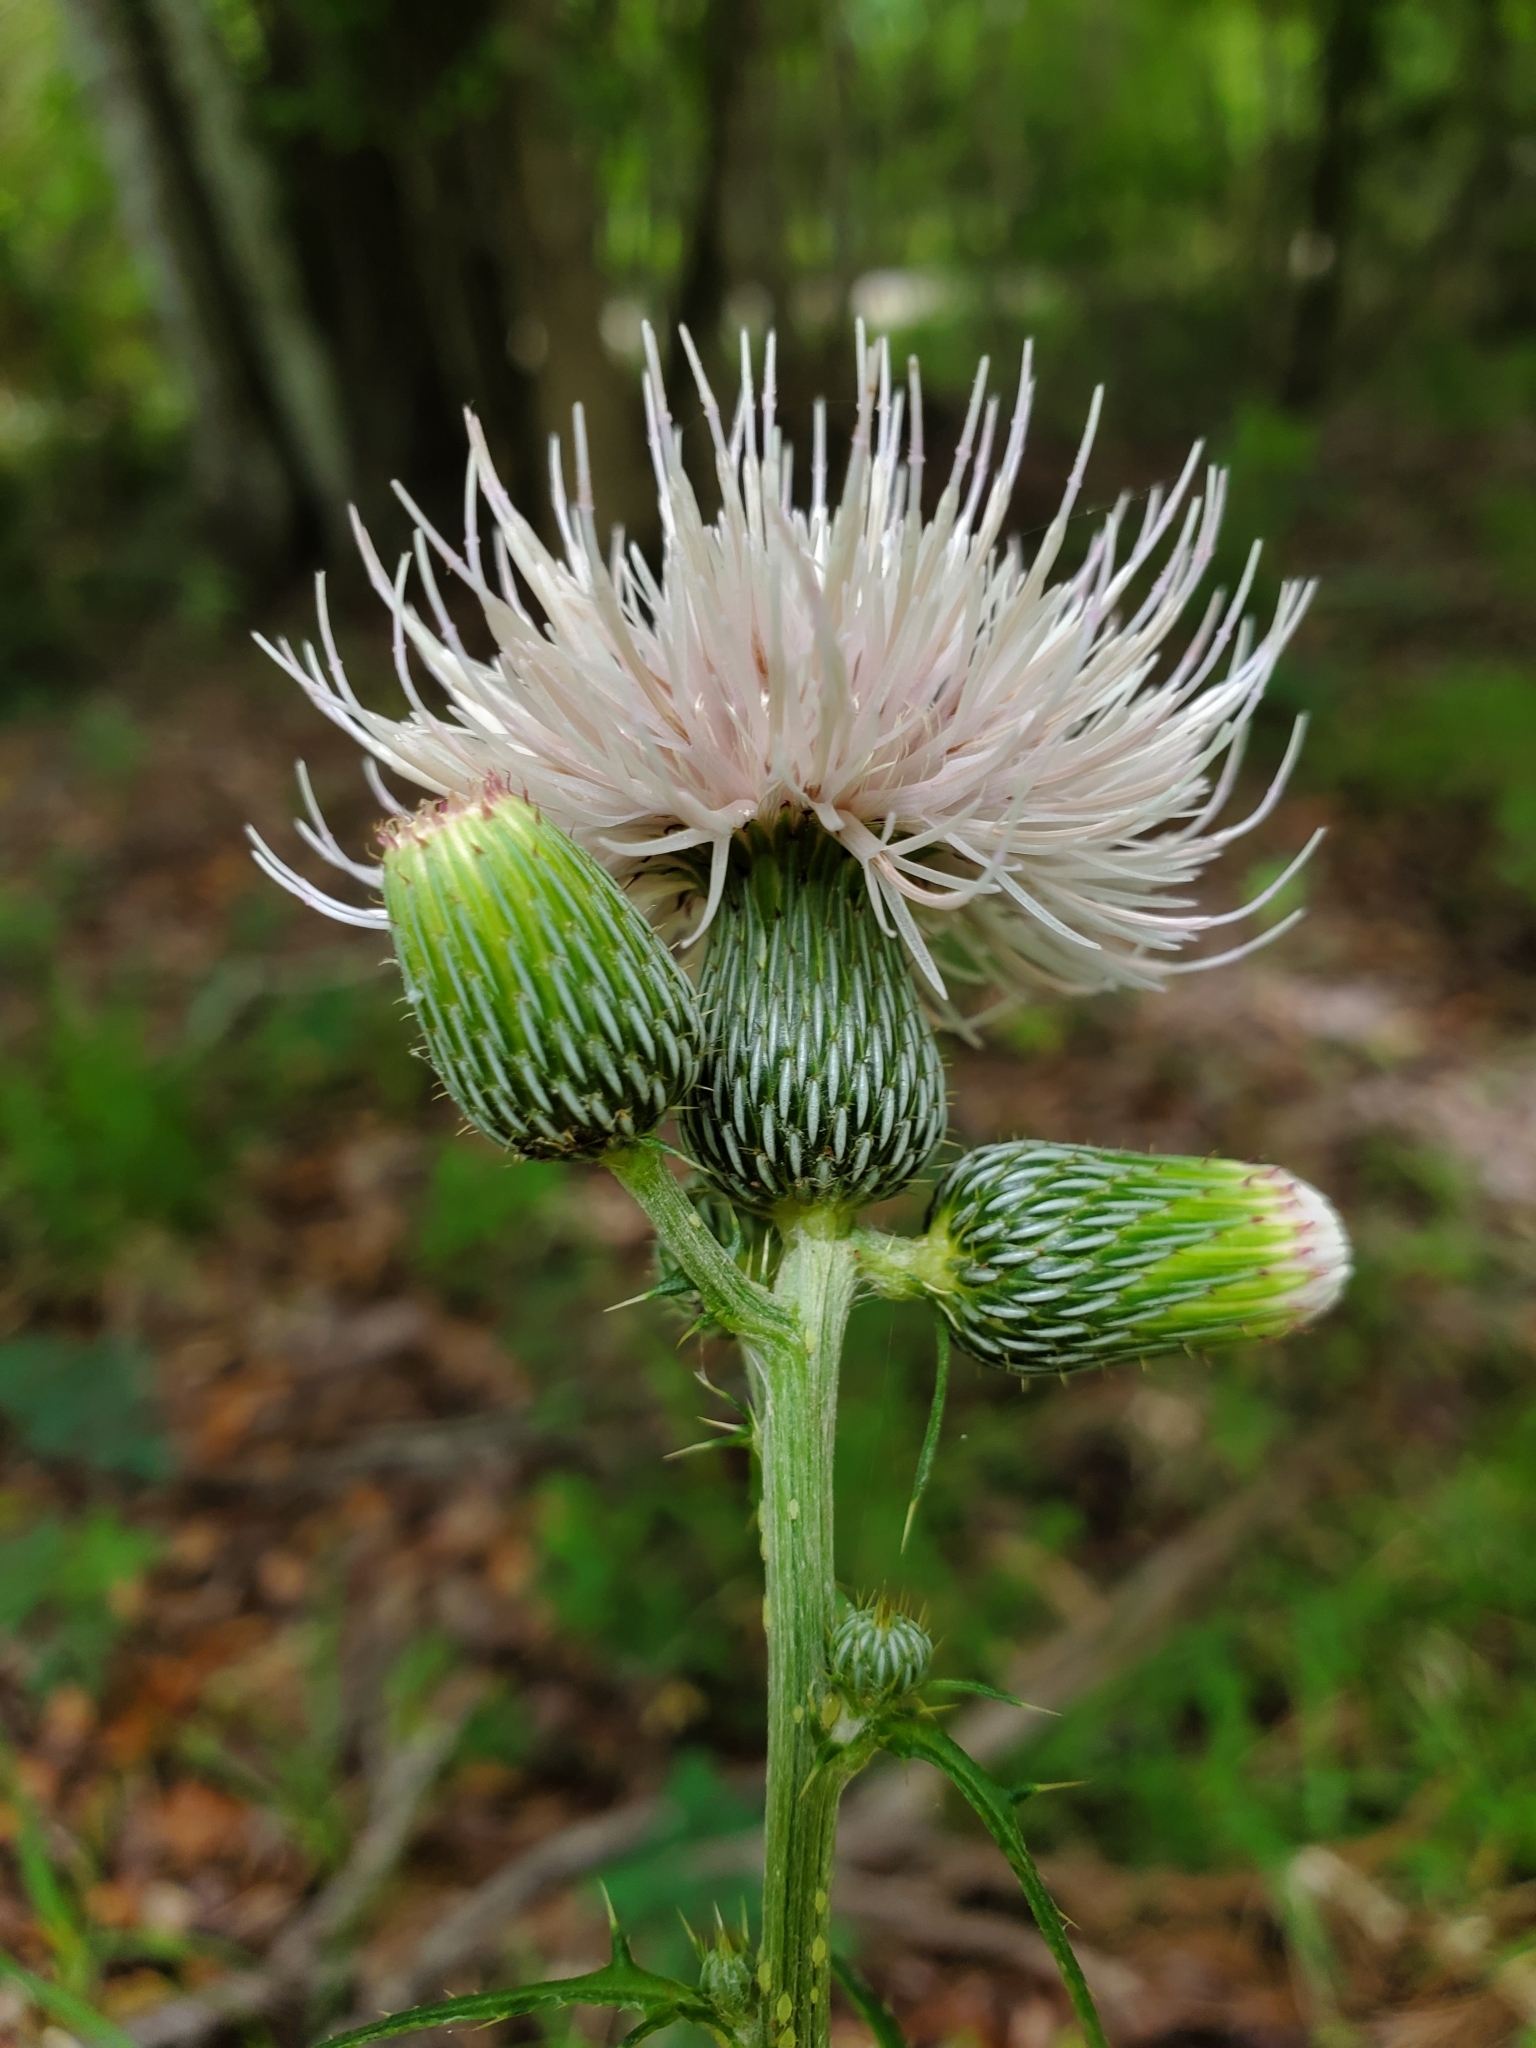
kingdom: Plantae
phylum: Tracheophyta
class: Magnoliopsida
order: Asterales
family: Asteraceae
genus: Cirsium
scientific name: Cirsium nuttalii
